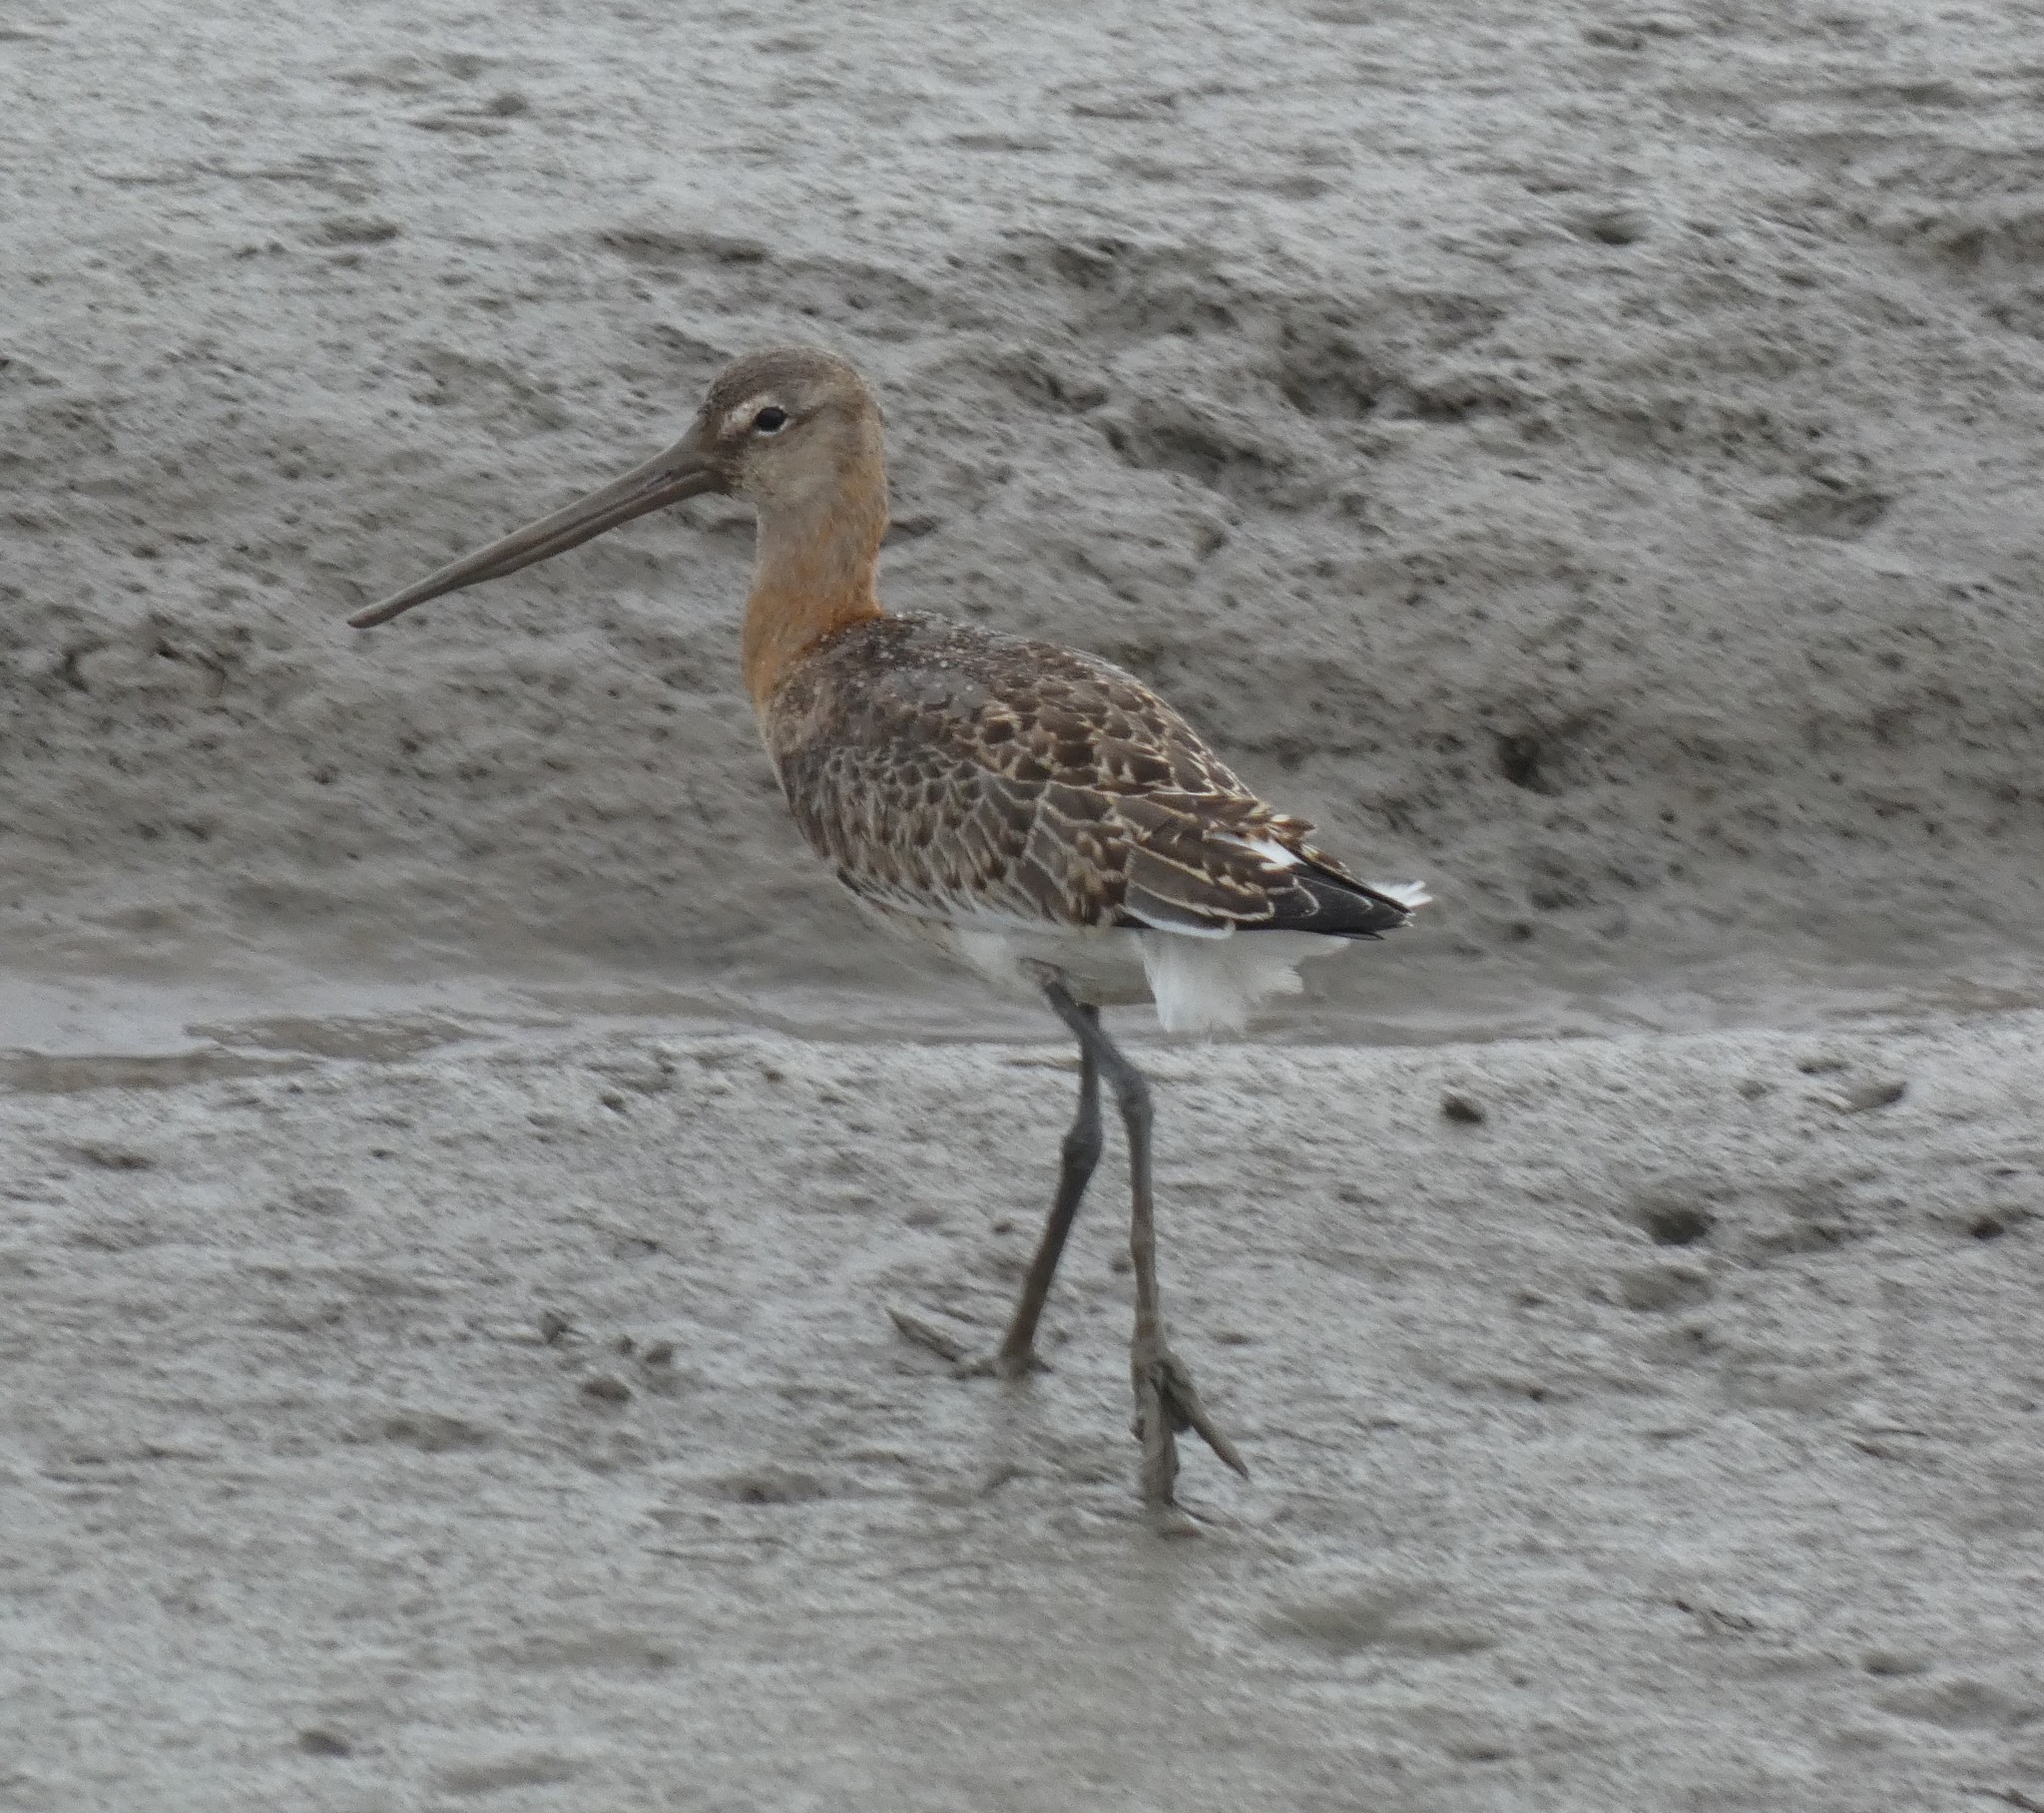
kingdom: Animalia
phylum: Chordata
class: Aves
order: Charadriiformes
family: Scolopacidae
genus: Limosa
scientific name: Limosa limosa
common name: Black-tailed godwit
